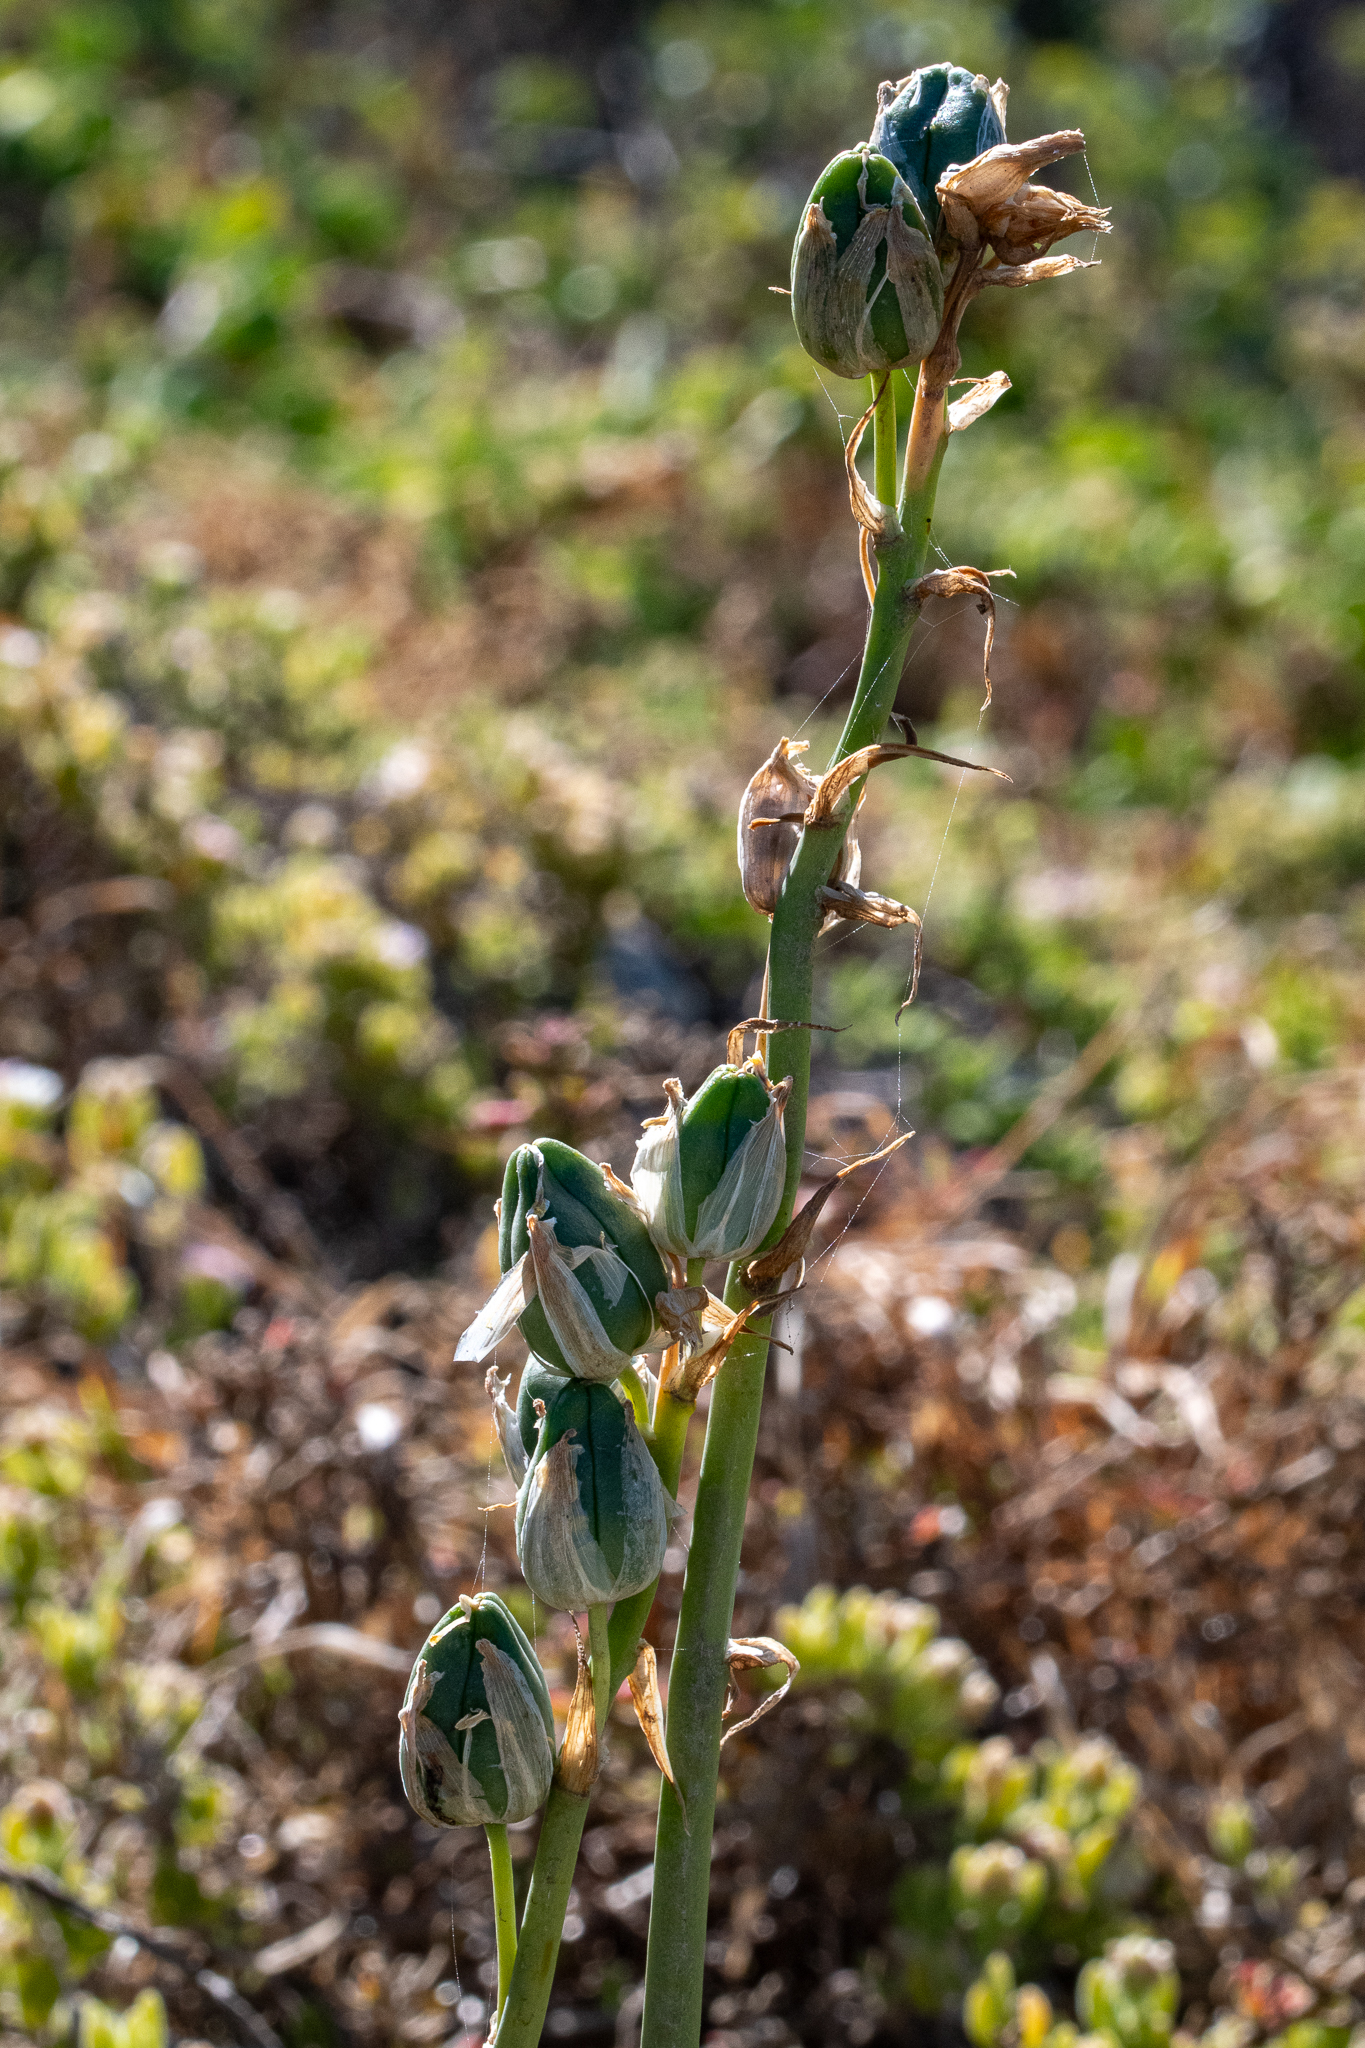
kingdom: Plantae
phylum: Tracheophyta
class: Liliopsida
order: Asparagales
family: Asparagaceae
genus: Albuca
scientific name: Albuca flaccida
